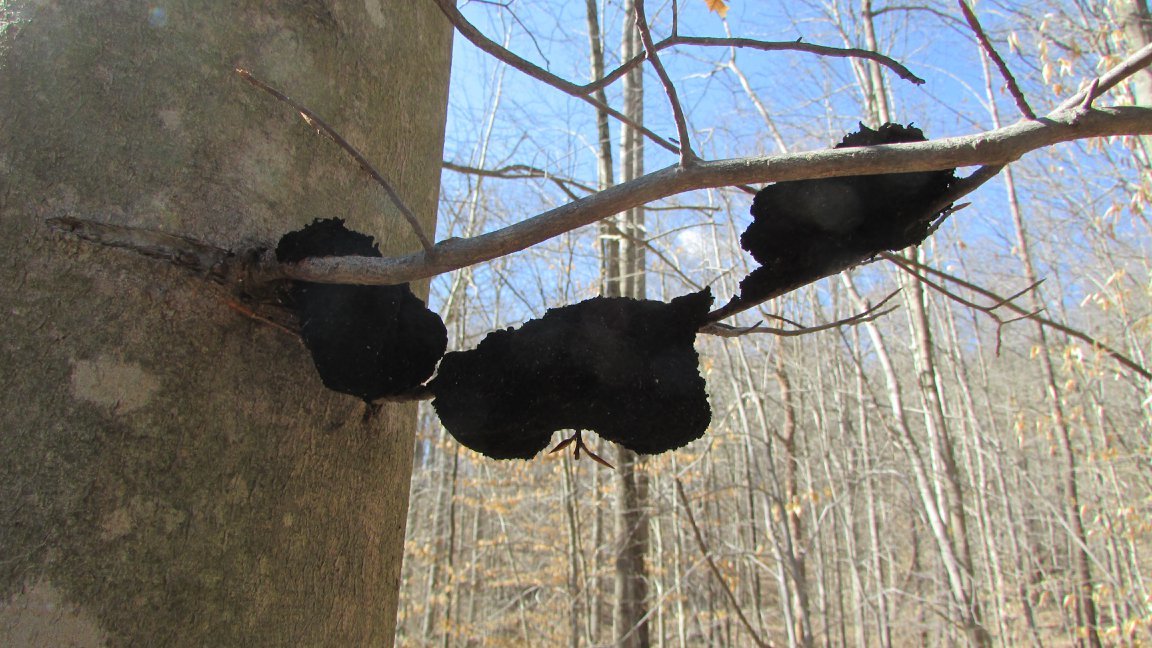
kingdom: Fungi
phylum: Ascomycota
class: Dothideomycetes
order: Capnodiales
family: Capnodiaceae
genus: Scorias
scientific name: Scorias spongiosa
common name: Black sooty mold
